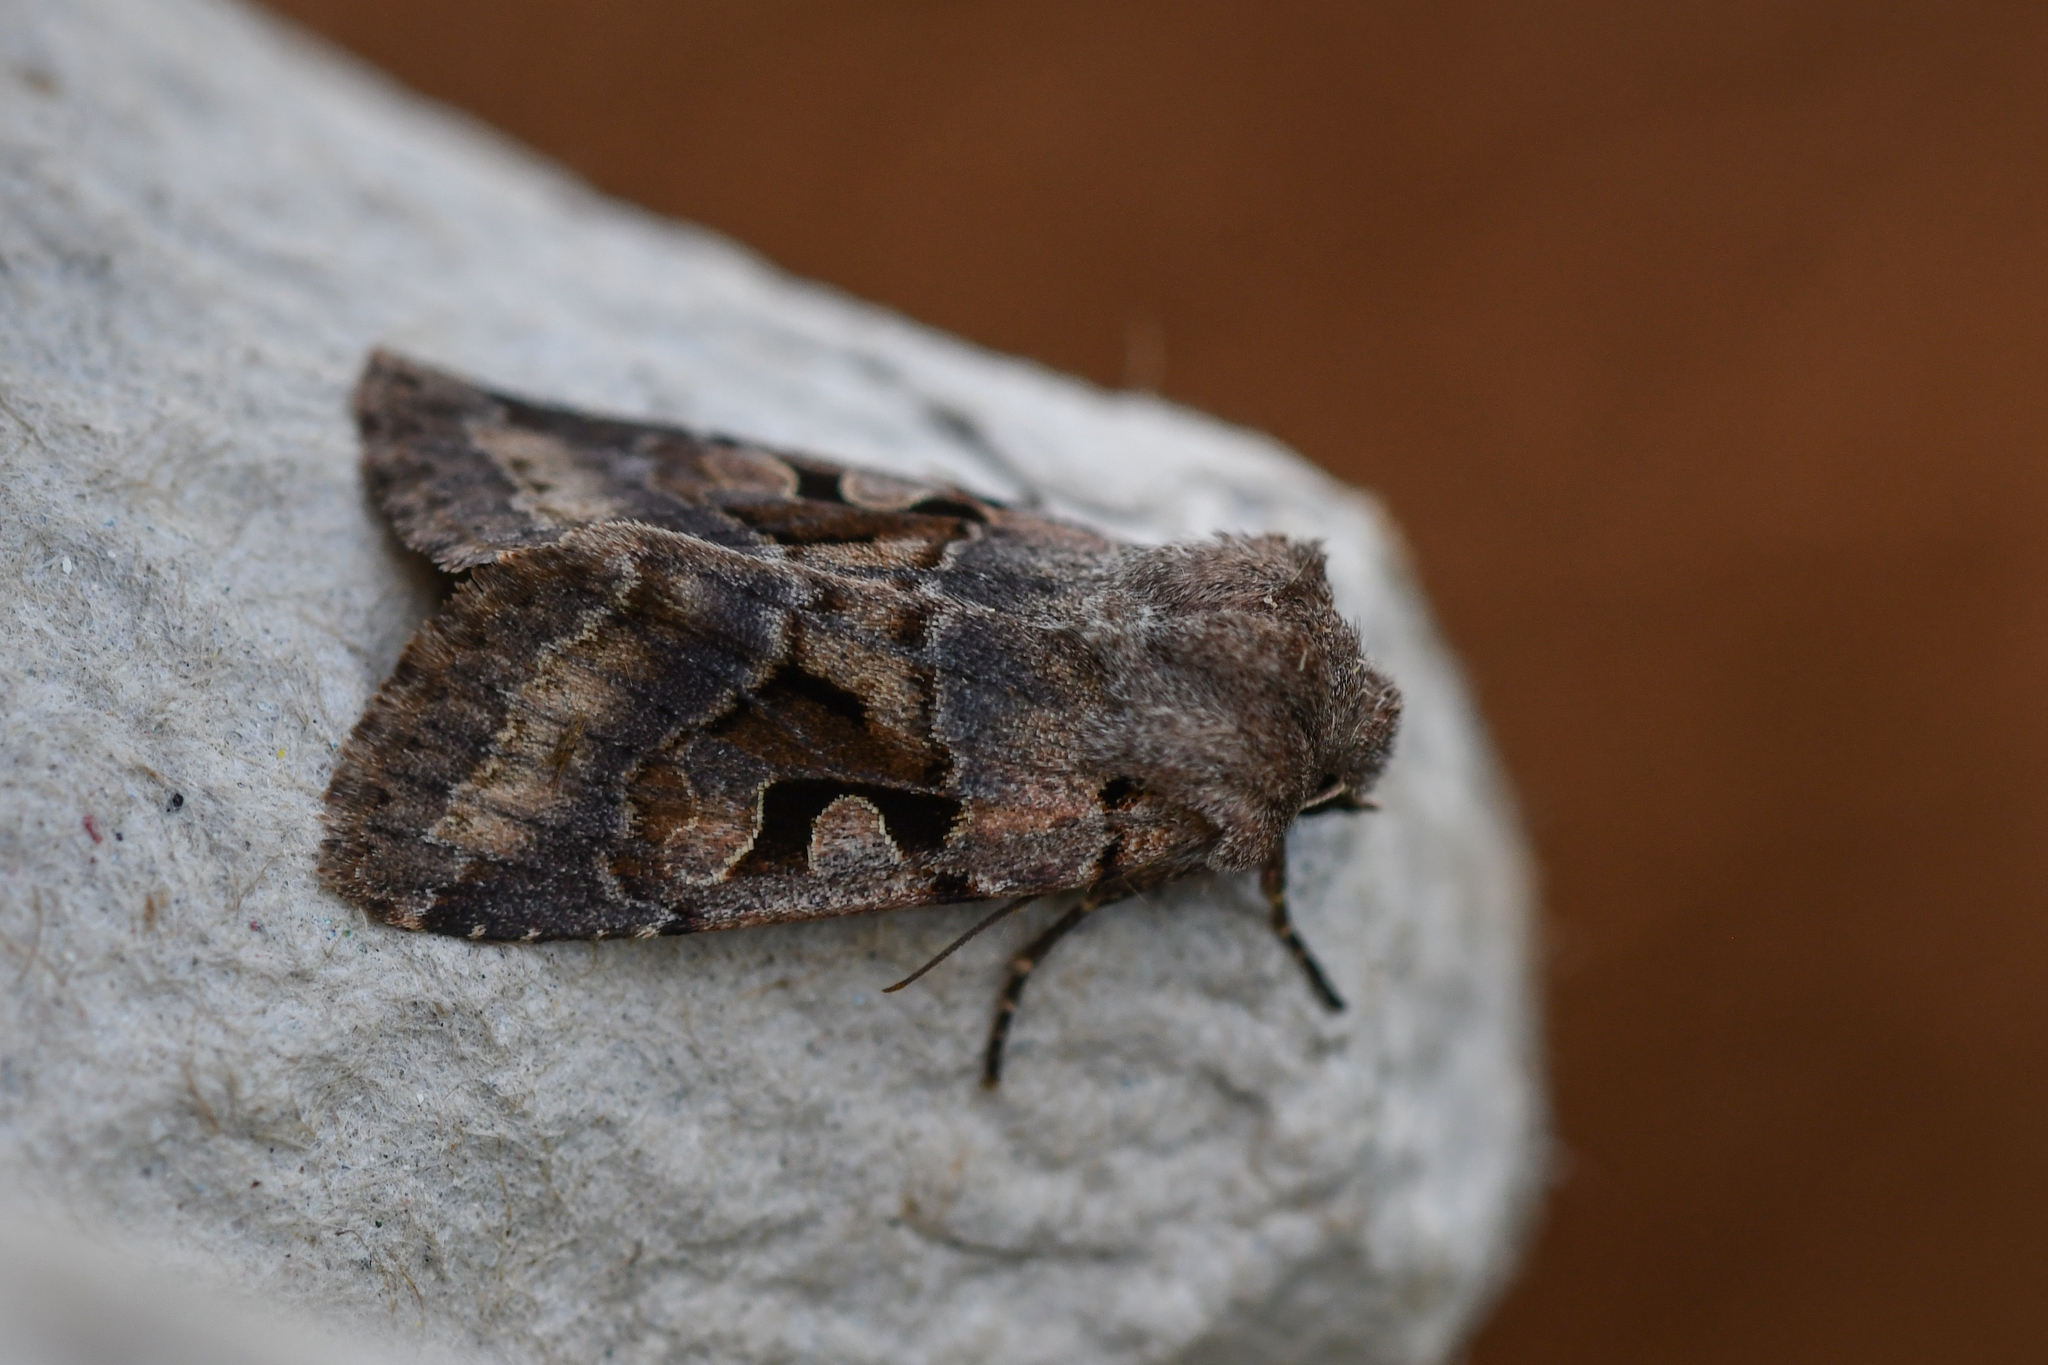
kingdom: Animalia
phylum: Arthropoda
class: Insecta
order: Lepidoptera
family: Noctuidae
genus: Orthosia
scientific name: Orthosia gothica
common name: Hebrew character
